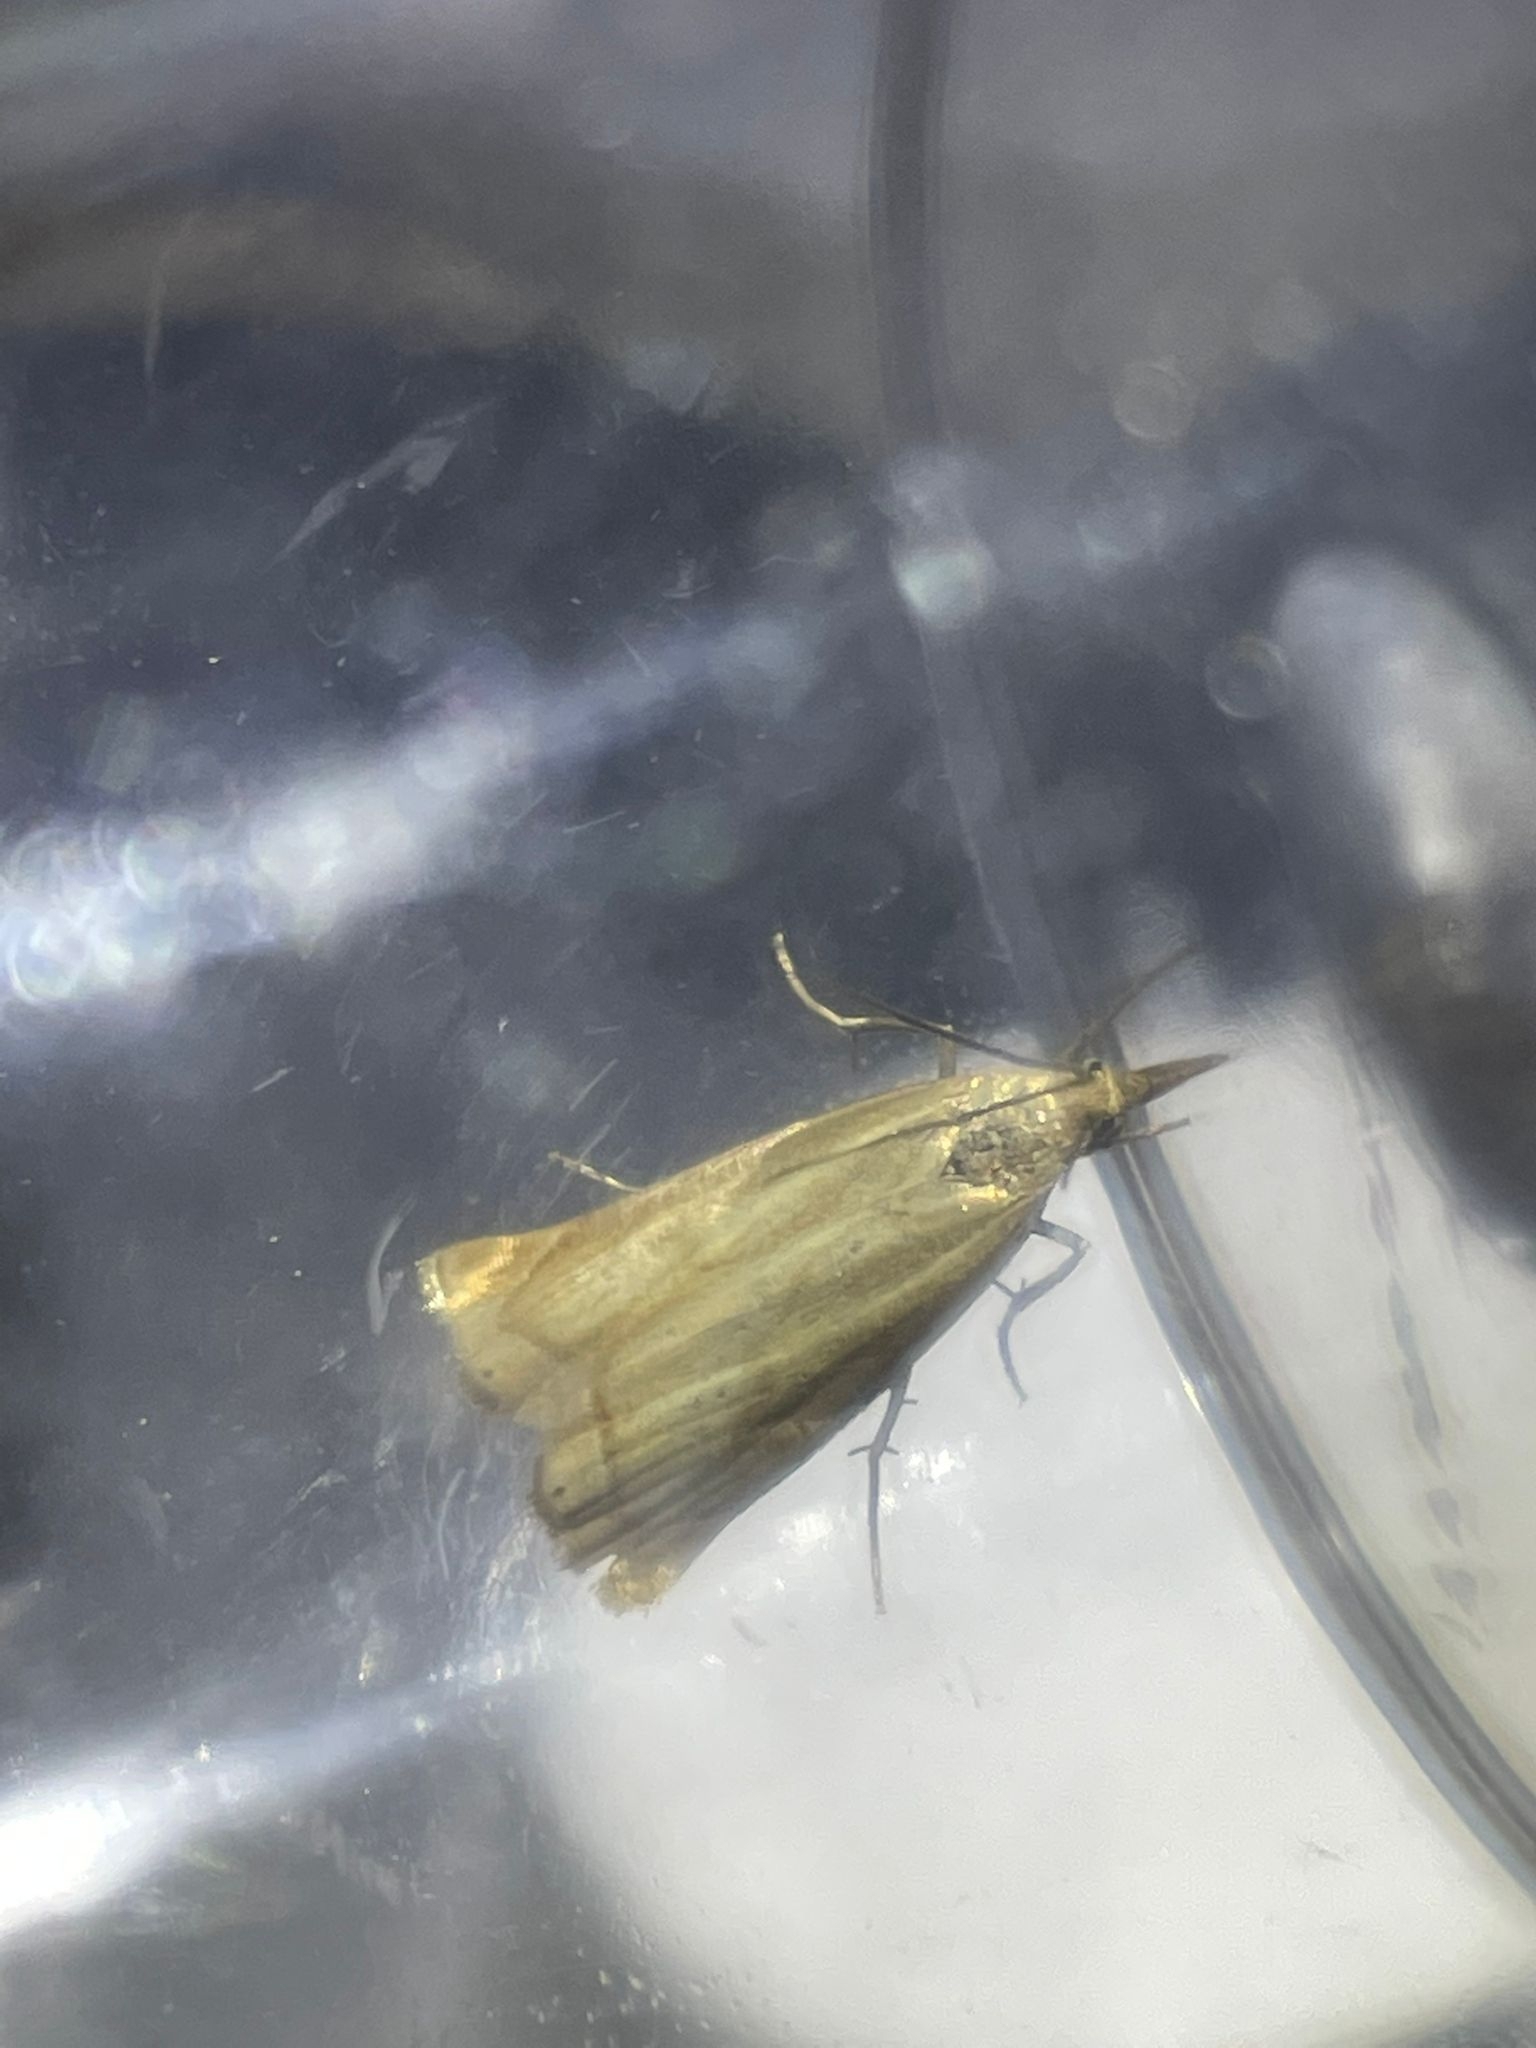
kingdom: Animalia
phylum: Arthropoda
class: Insecta
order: Lepidoptera
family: Crambidae
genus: Chrysoteuchia
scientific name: Chrysoteuchia culmella
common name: Garden grass-veneer
